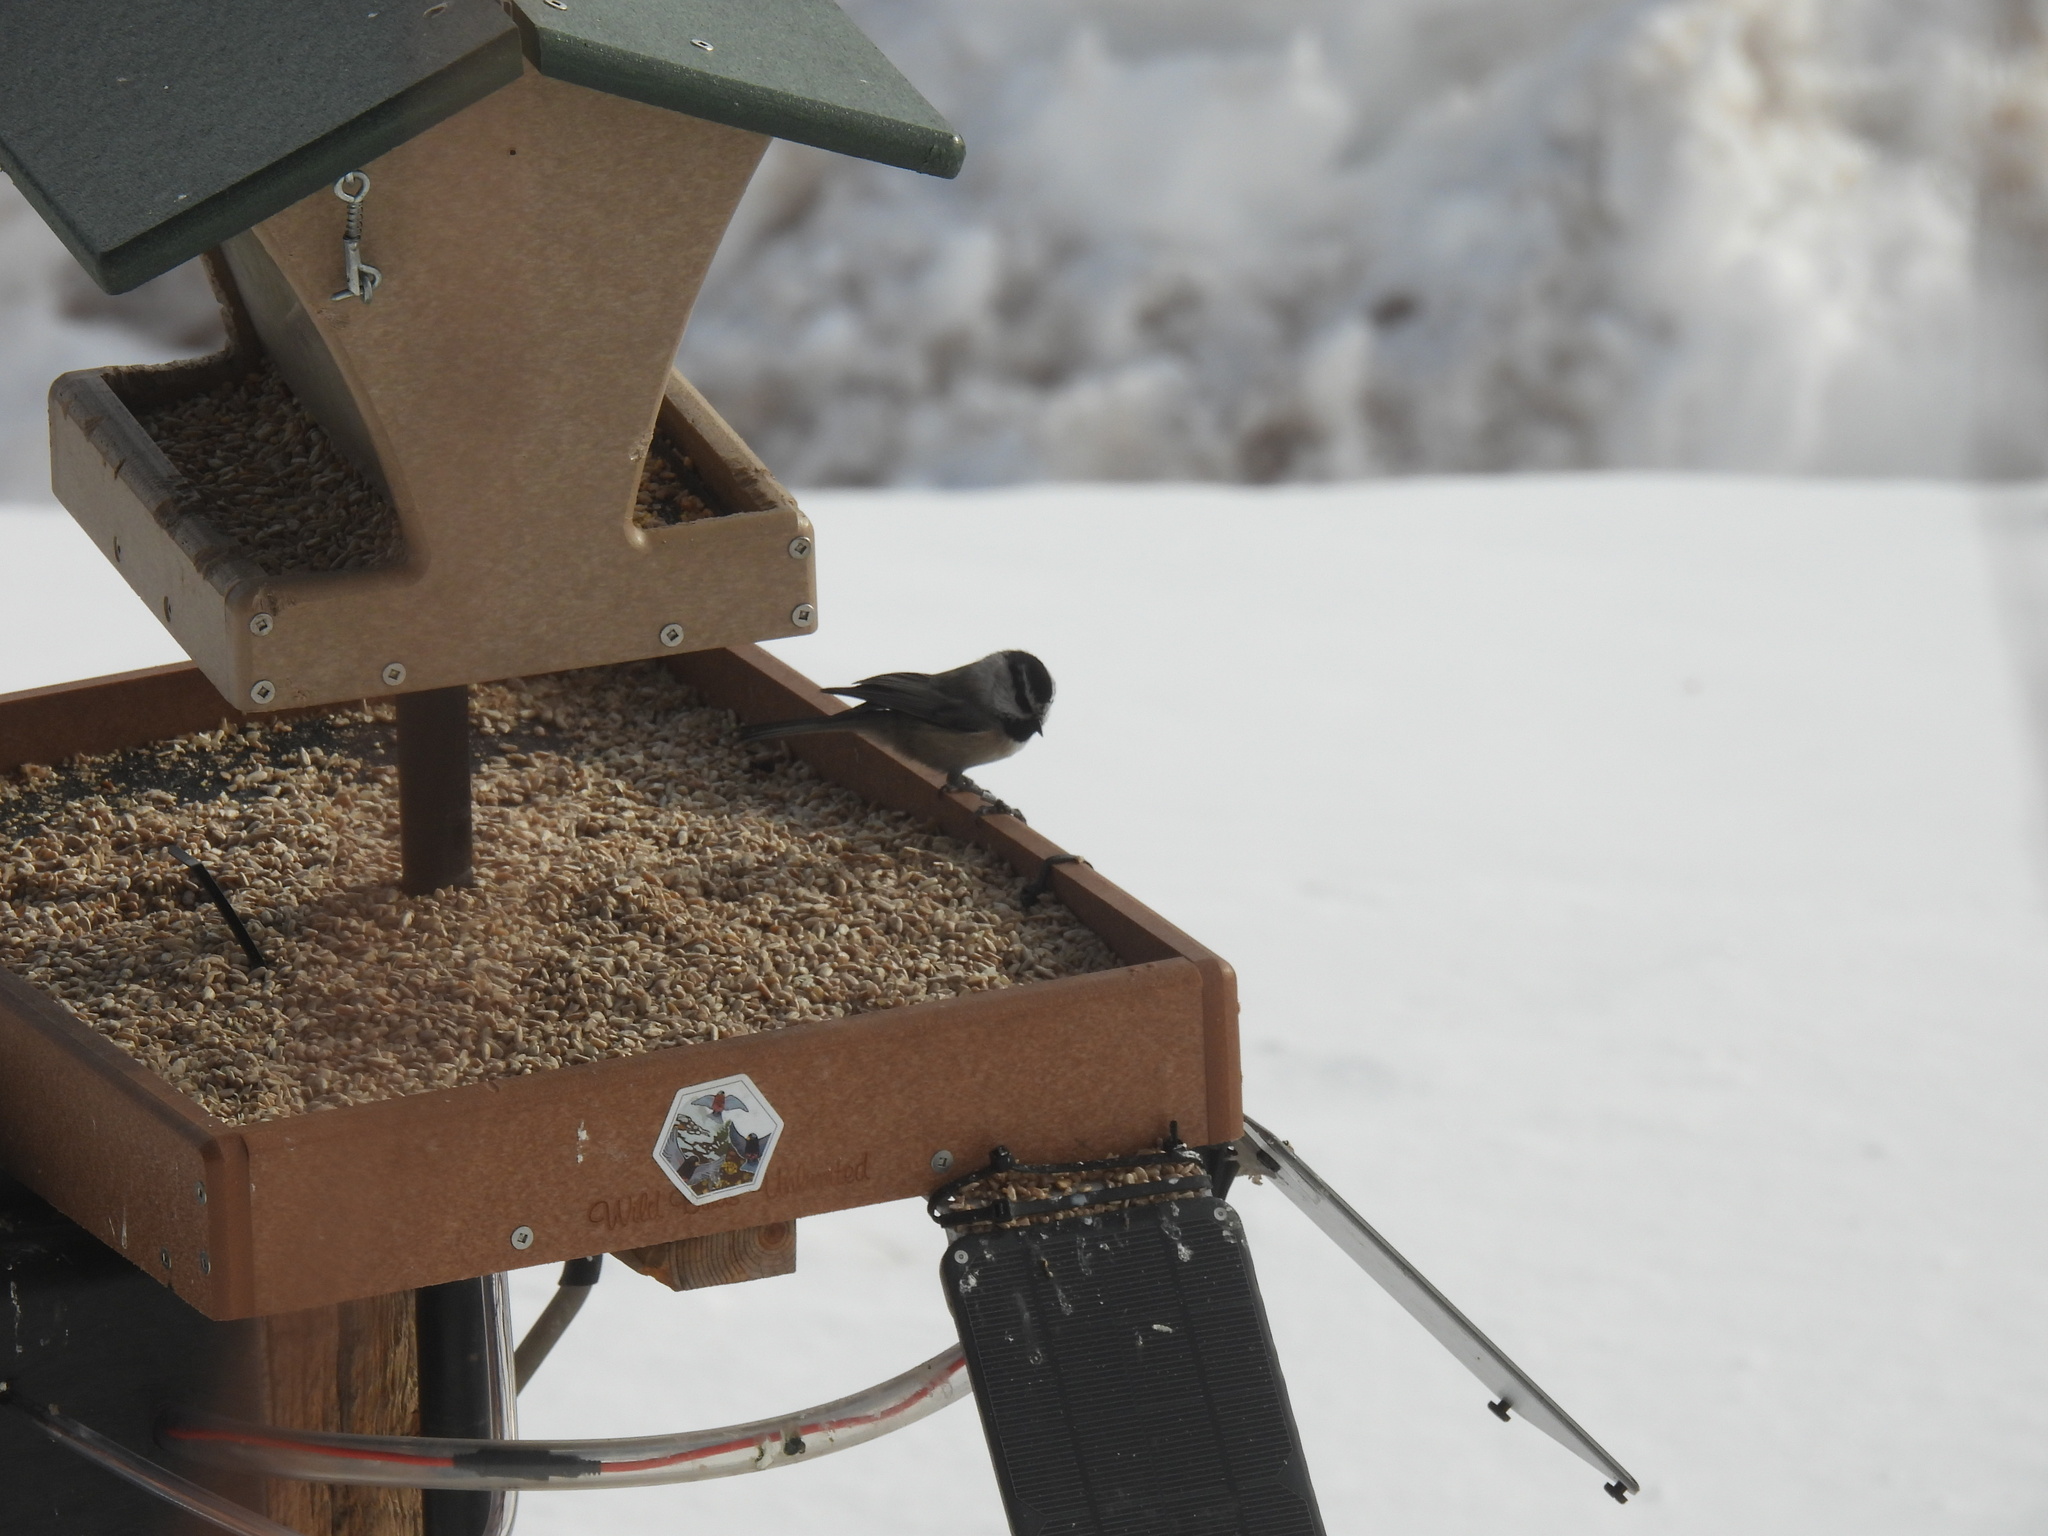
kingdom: Animalia
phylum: Chordata
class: Aves
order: Passeriformes
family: Paridae
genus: Poecile
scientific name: Poecile gambeli
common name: Mountain chickadee
